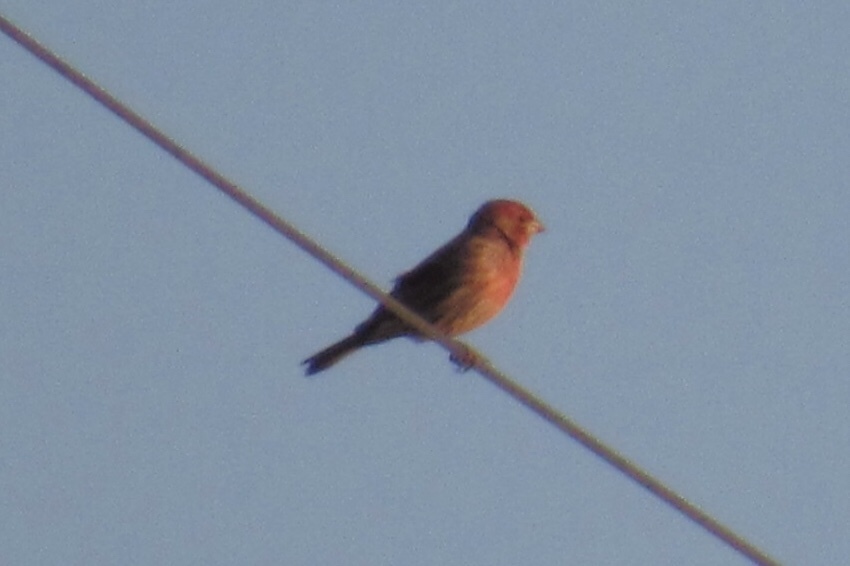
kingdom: Animalia
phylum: Chordata
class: Aves
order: Passeriformes
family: Fringillidae
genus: Haemorhous
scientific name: Haemorhous mexicanus
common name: House finch
